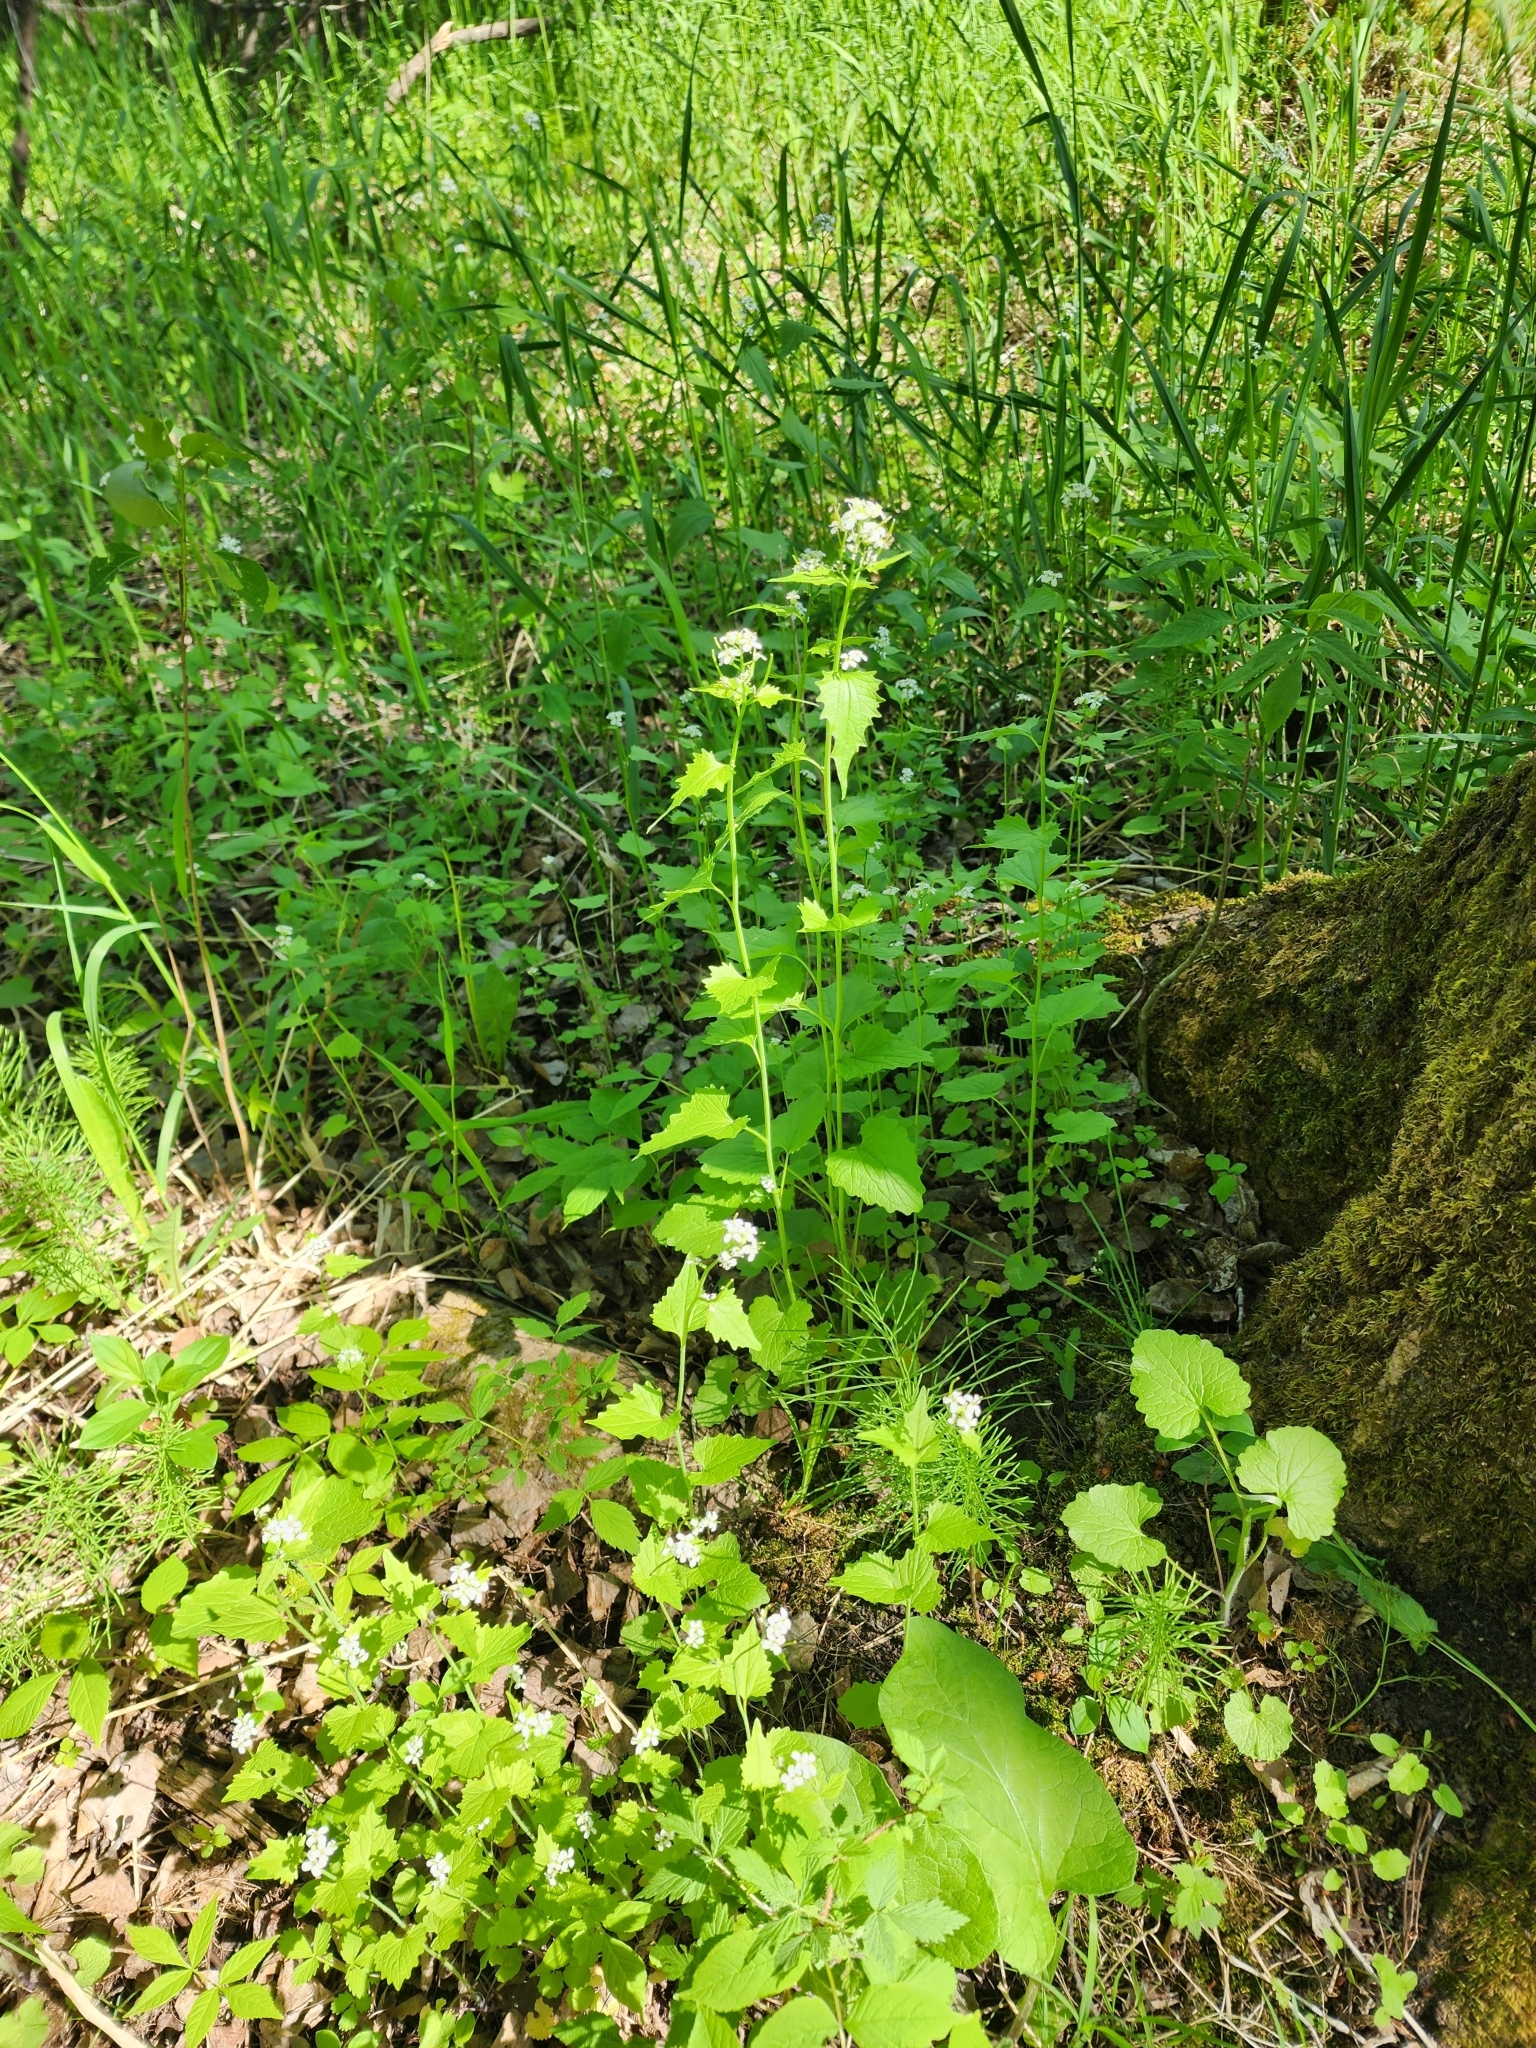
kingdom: Plantae
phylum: Tracheophyta
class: Magnoliopsida
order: Brassicales
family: Brassicaceae
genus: Alliaria
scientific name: Alliaria petiolata
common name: Garlic mustard
